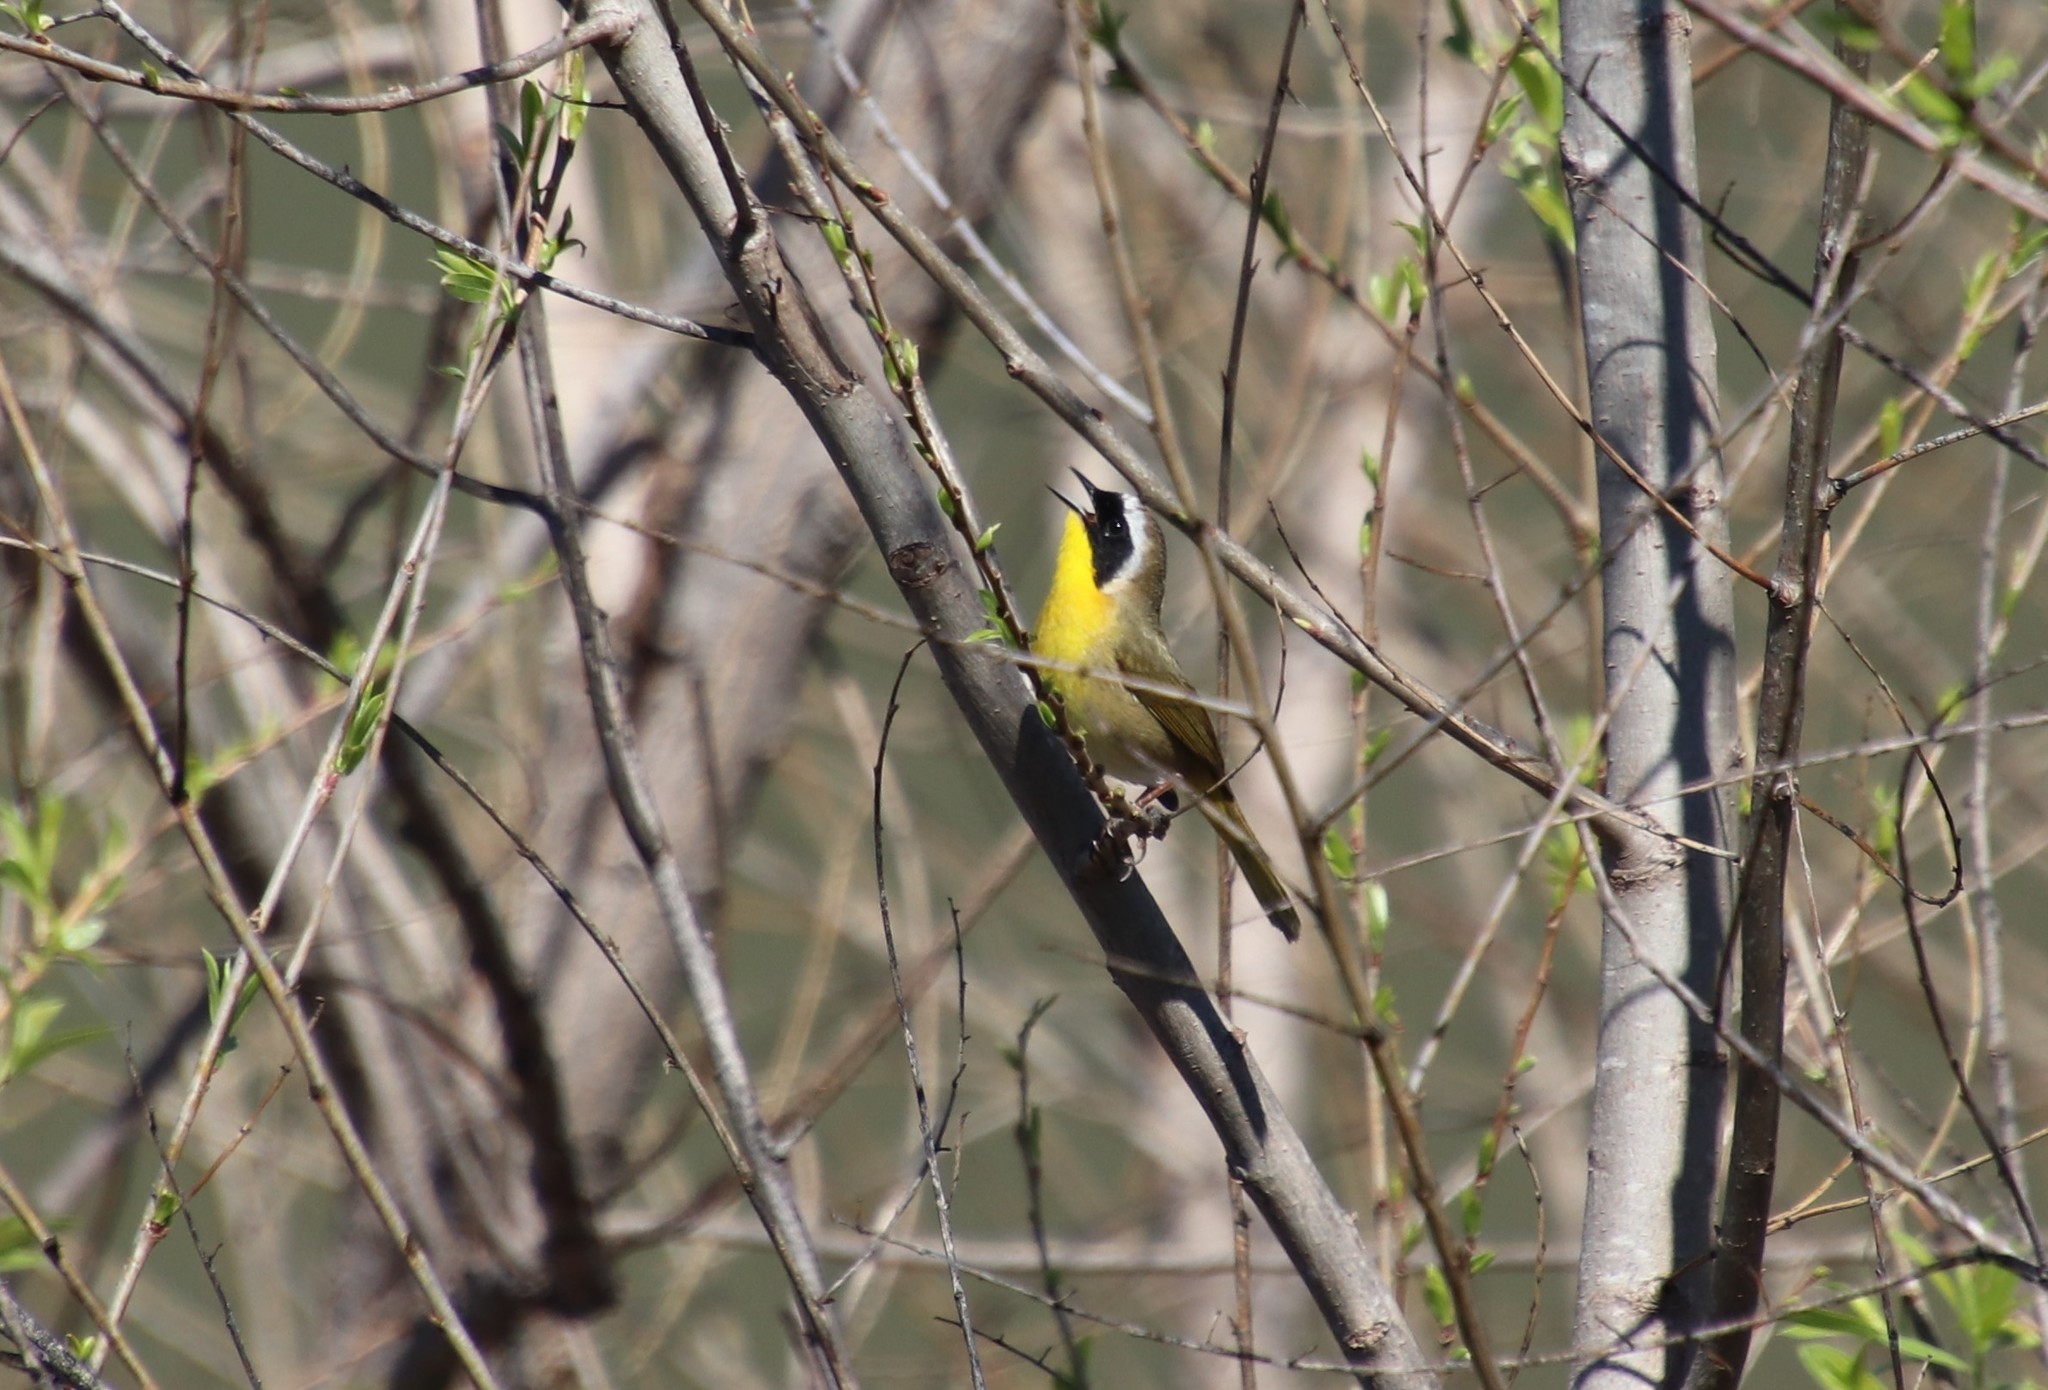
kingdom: Animalia
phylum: Chordata
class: Aves
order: Passeriformes
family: Parulidae
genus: Geothlypis
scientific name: Geothlypis trichas
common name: Common yellowthroat
